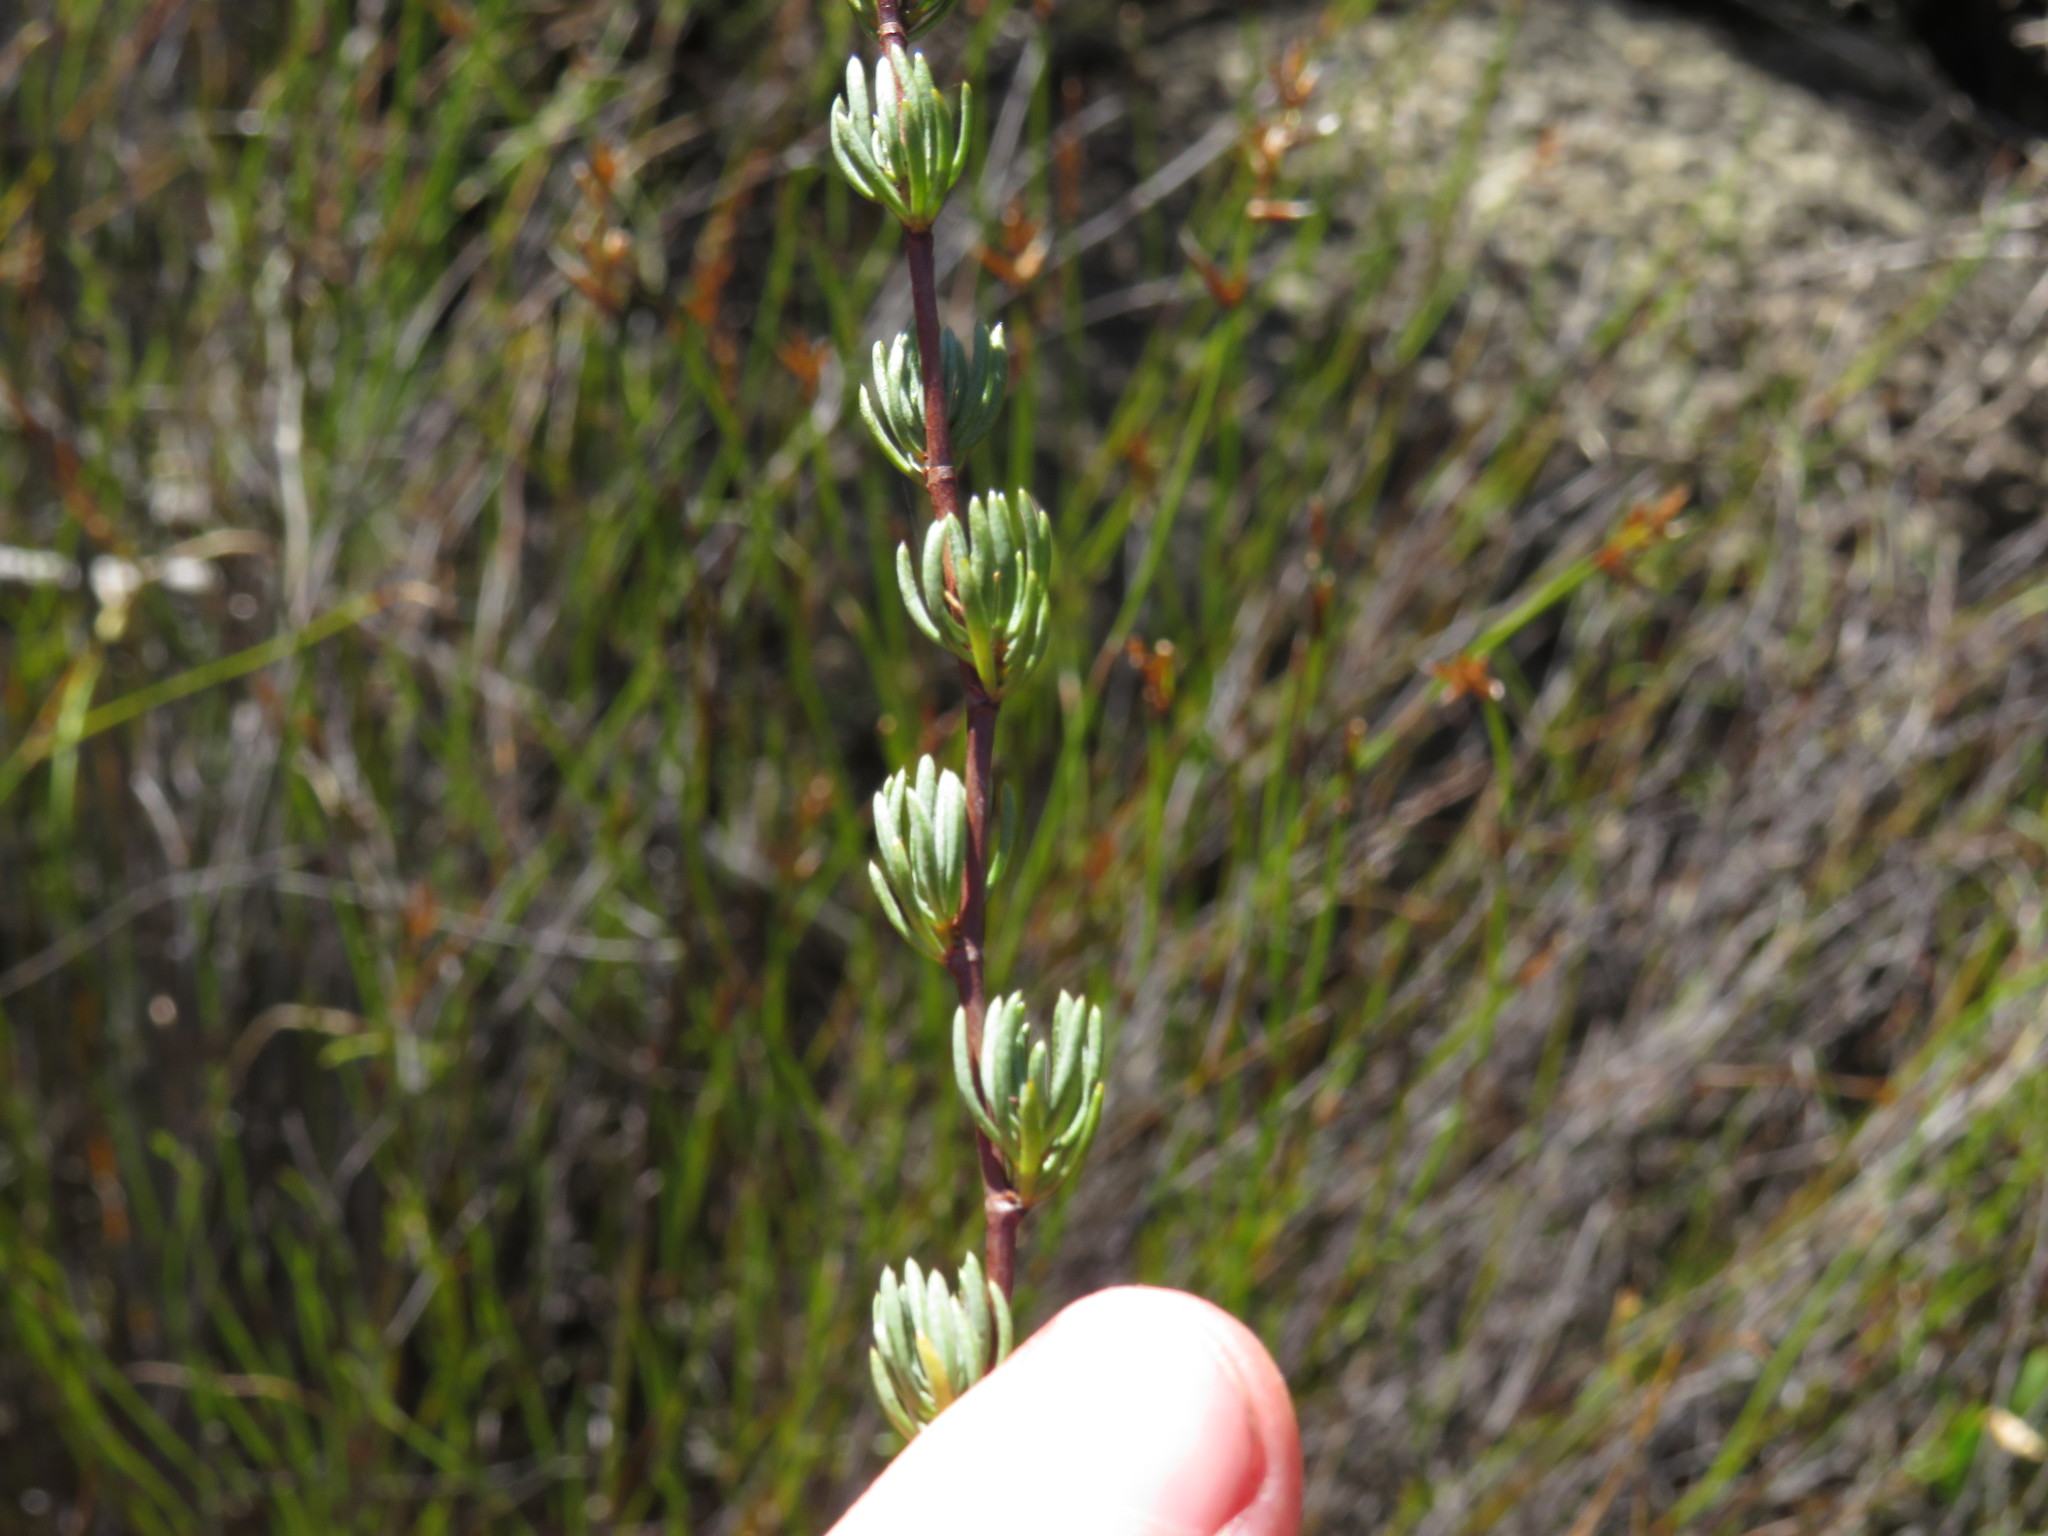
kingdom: Plantae
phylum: Tracheophyta
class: Magnoliopsida
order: Rosales
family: Rosaceae
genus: Cliffortia
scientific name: Cliffortia teretifolia
